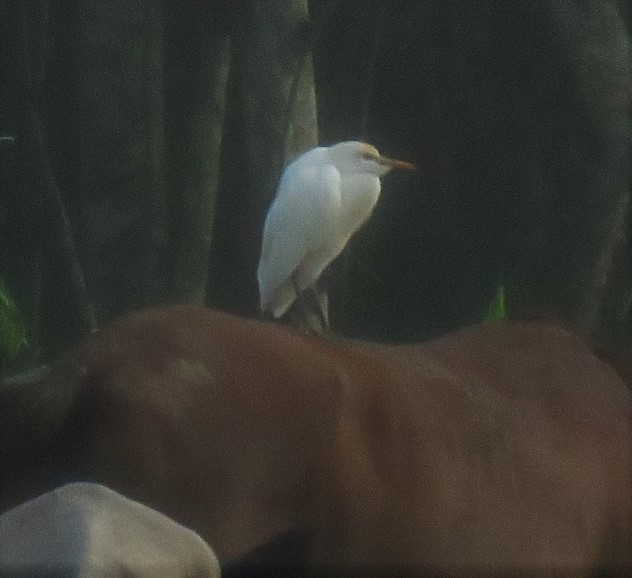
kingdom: Animalia
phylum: Chordata
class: Aves
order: Pelecaniformes
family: Ardeidae
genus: Bubulcus
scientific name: Bubulcus ibis
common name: Cattle egret
